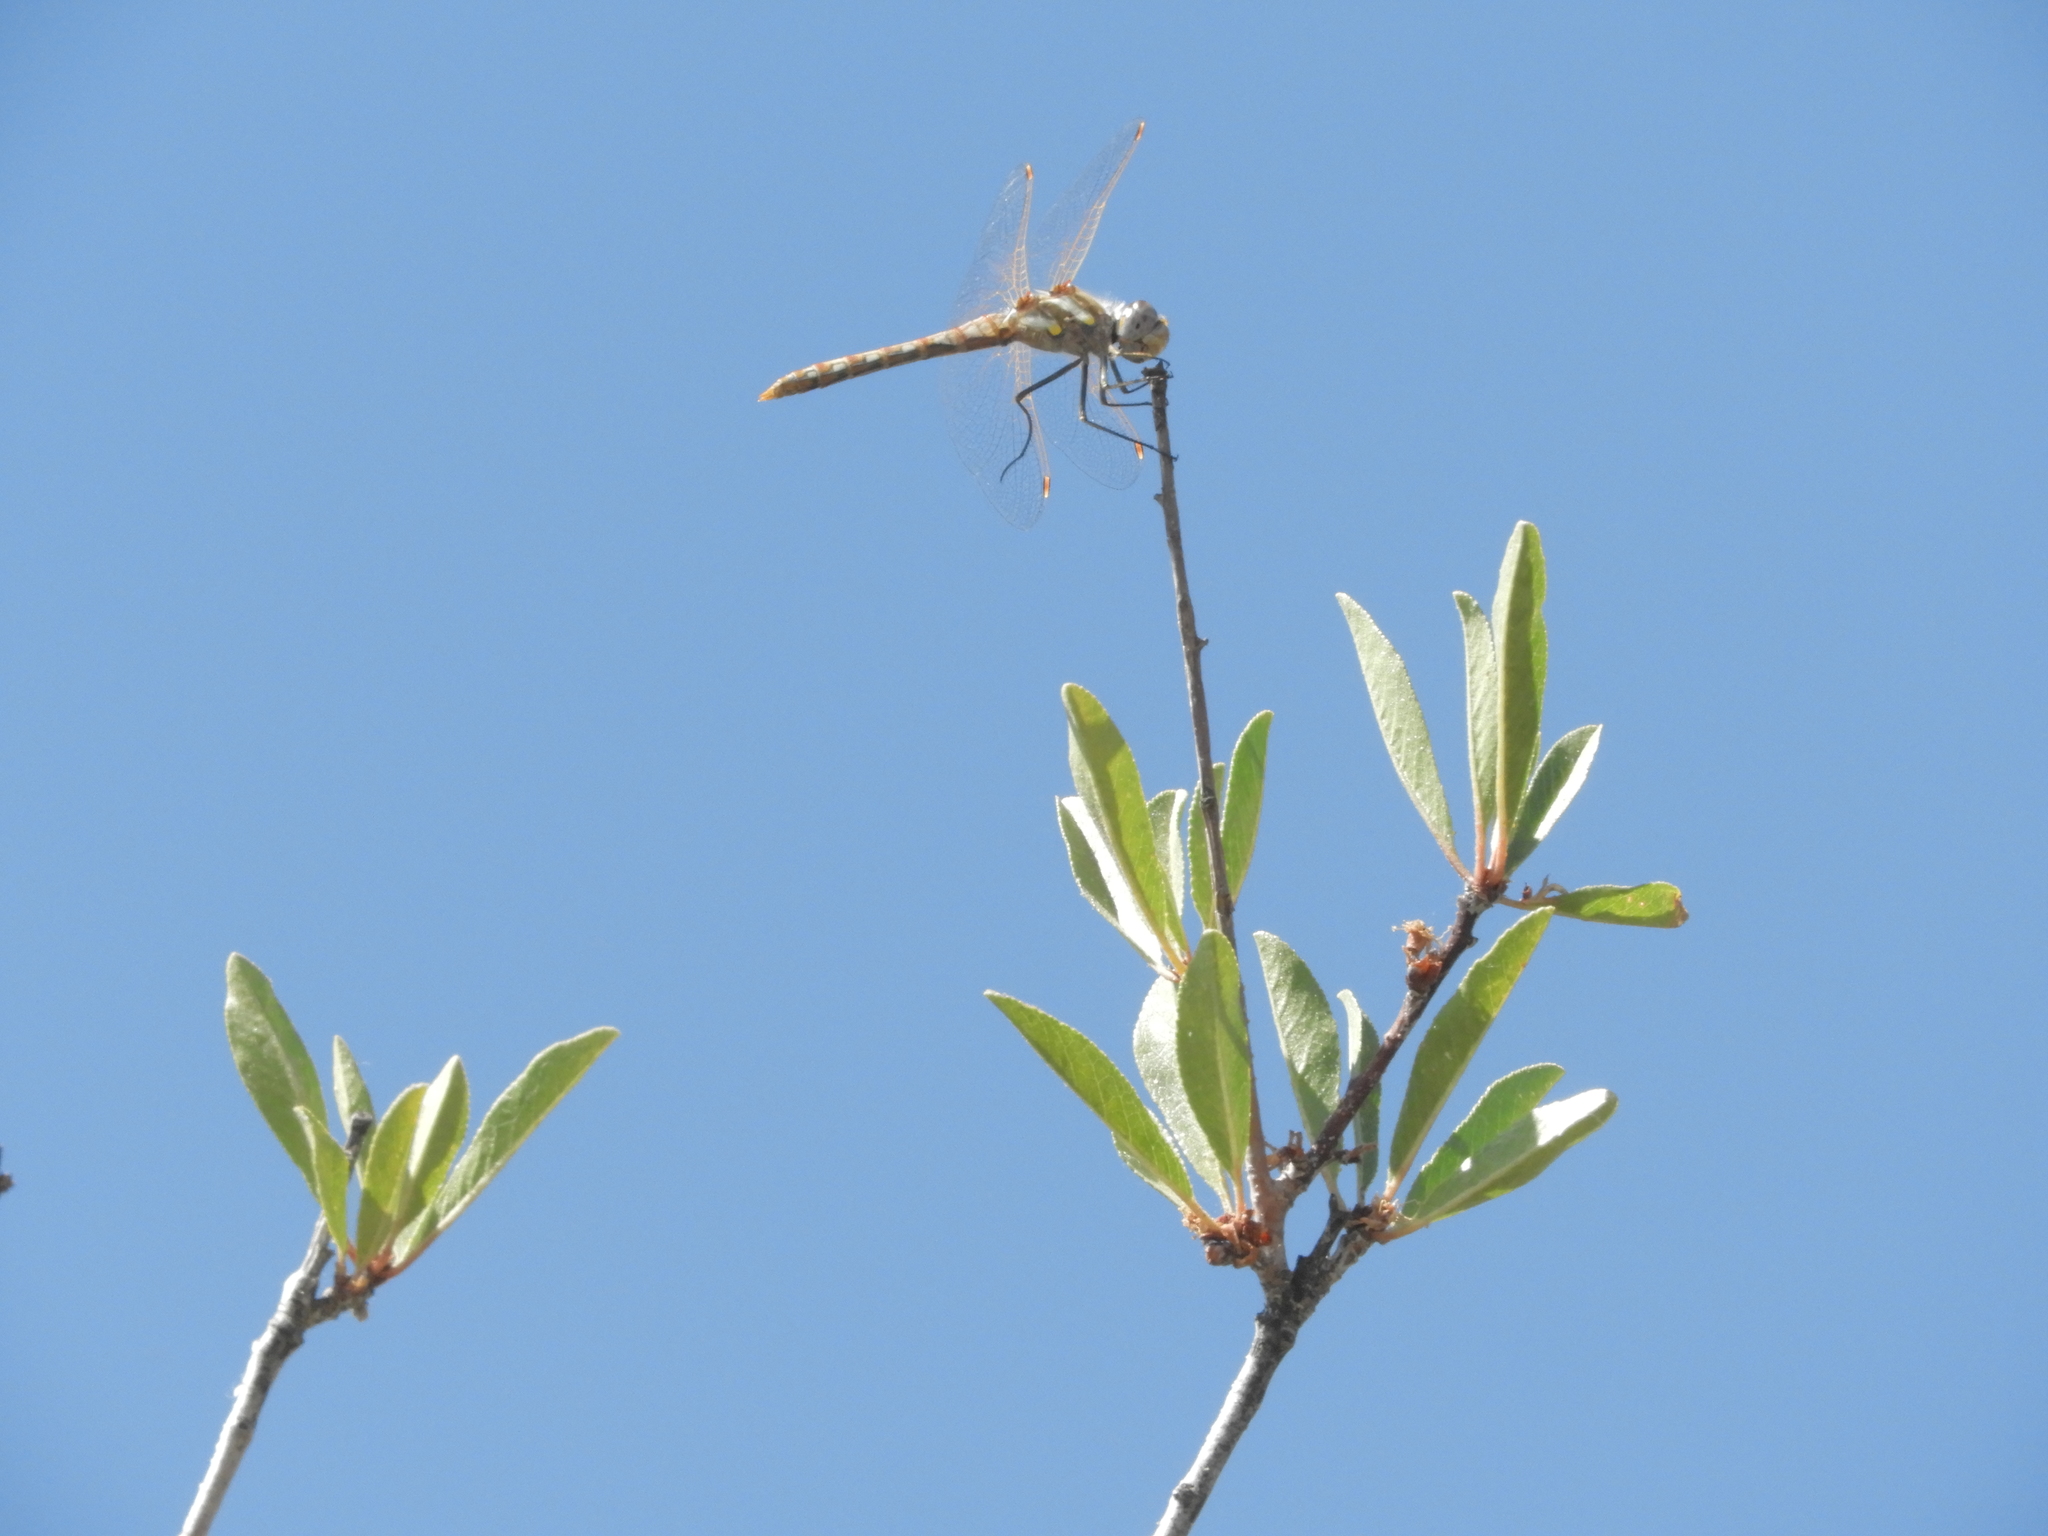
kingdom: Animalia
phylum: Arthropoda
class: Insecta
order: Odonata
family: Libellulidae
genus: Sympetrum
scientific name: Sympetrum corruptum
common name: Variegated meadowhawk
